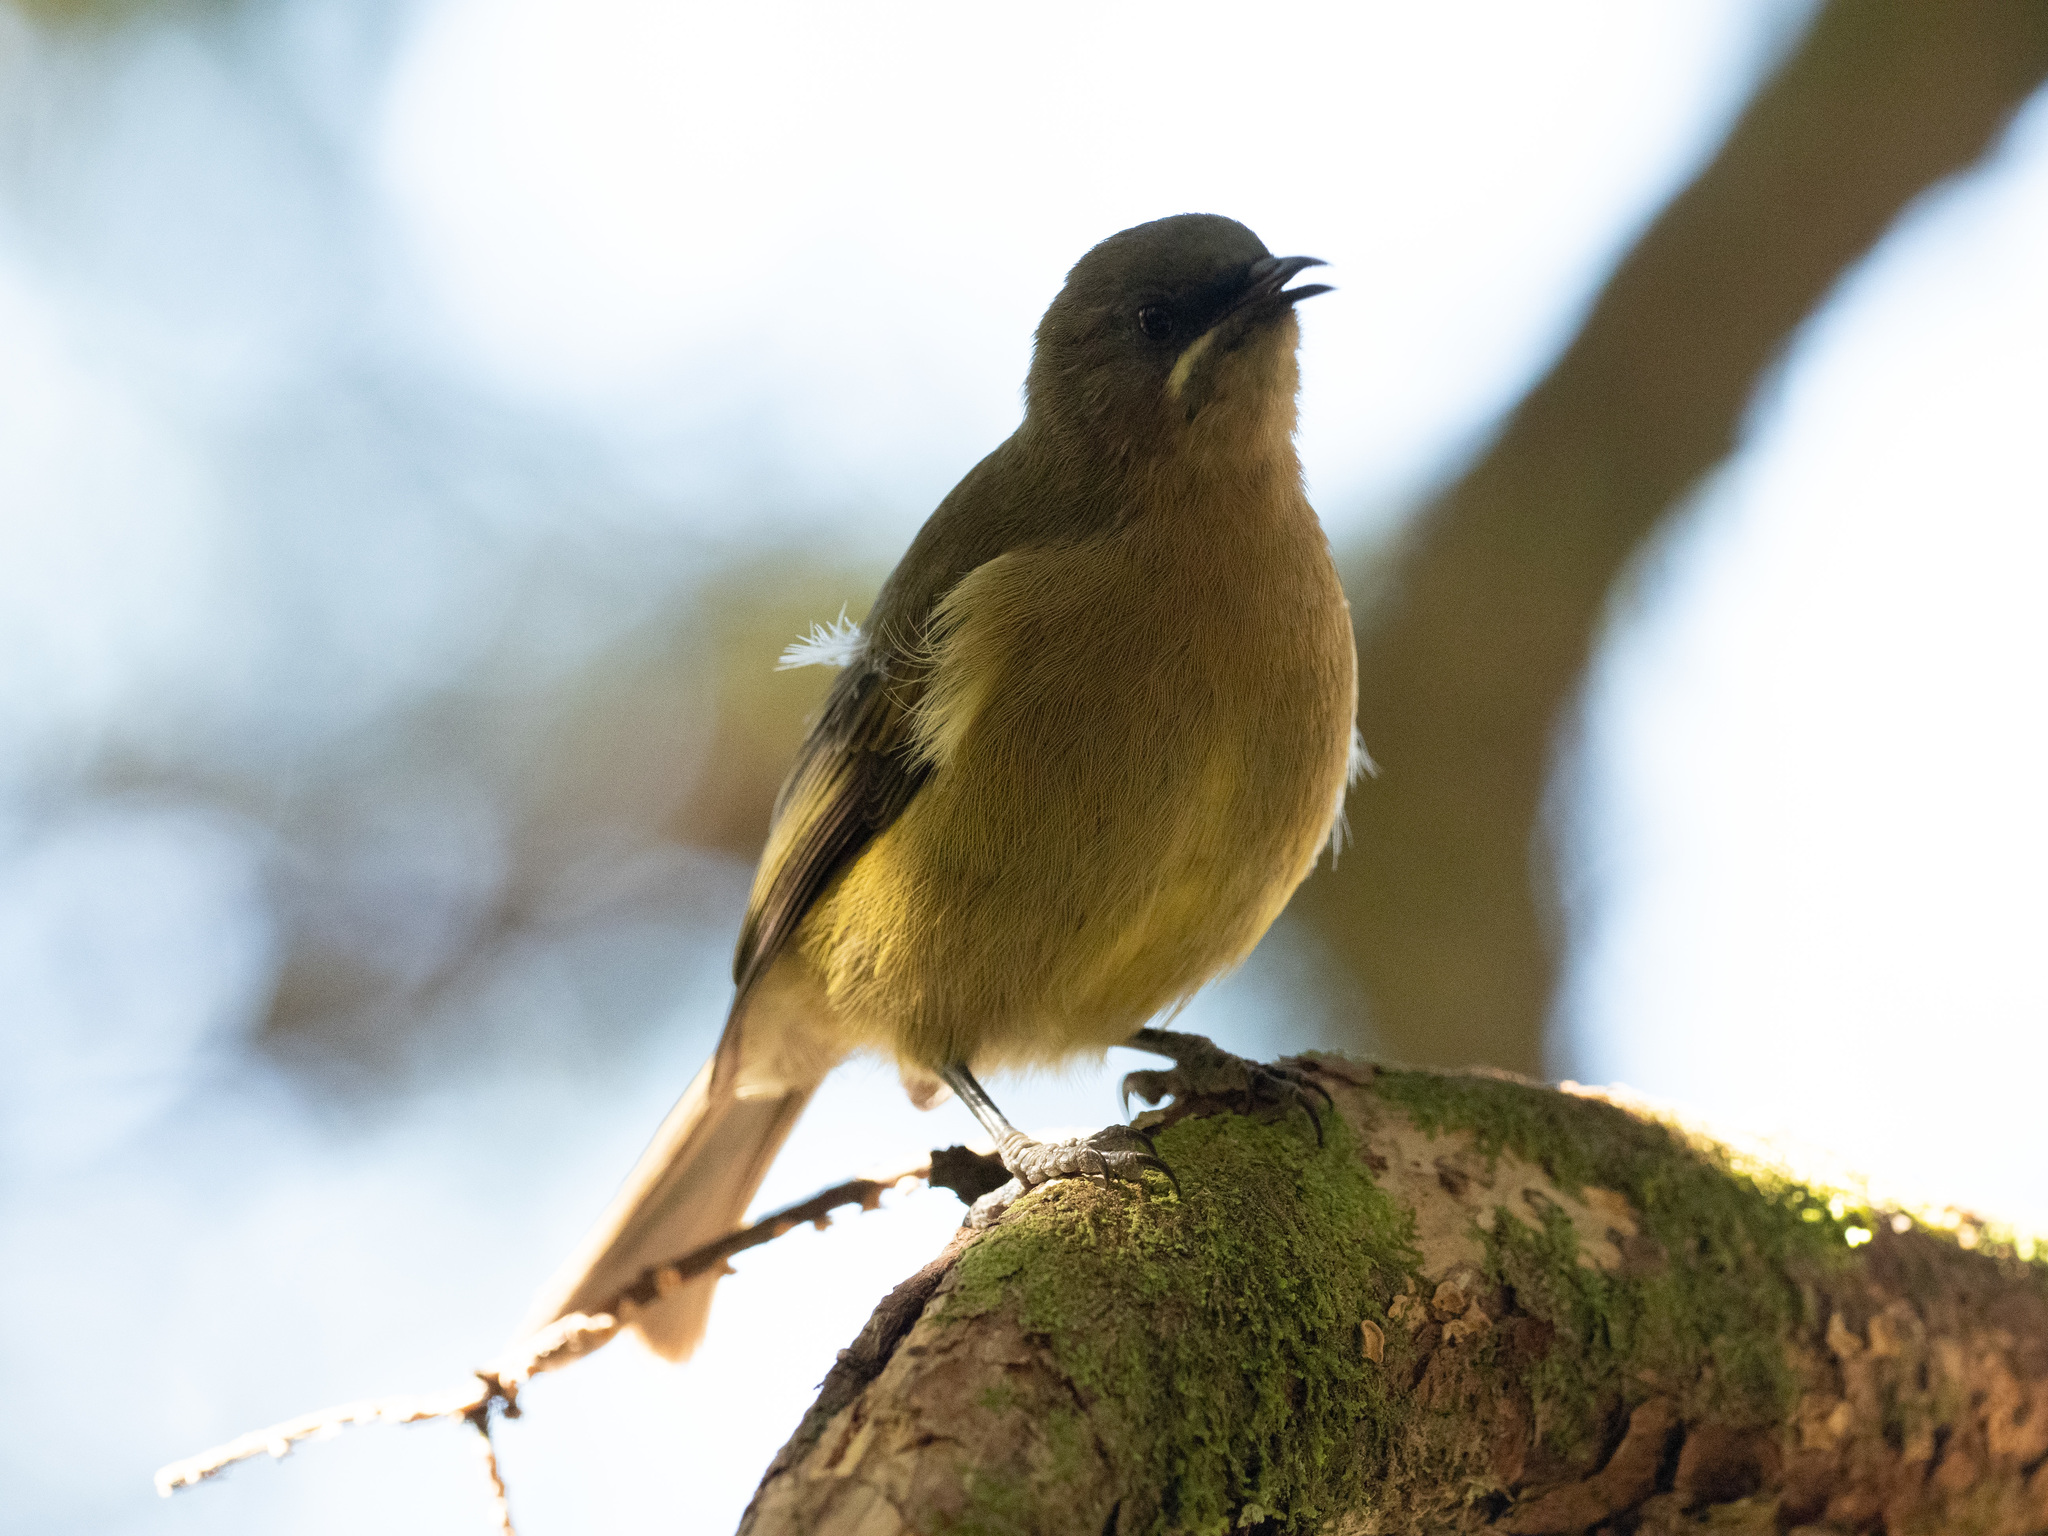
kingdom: Animalia
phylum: Chordata
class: Aves
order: Passeriformes
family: Meliphagidae
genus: Anthornis
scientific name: Anthornis melanura
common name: New zealand bellbird
